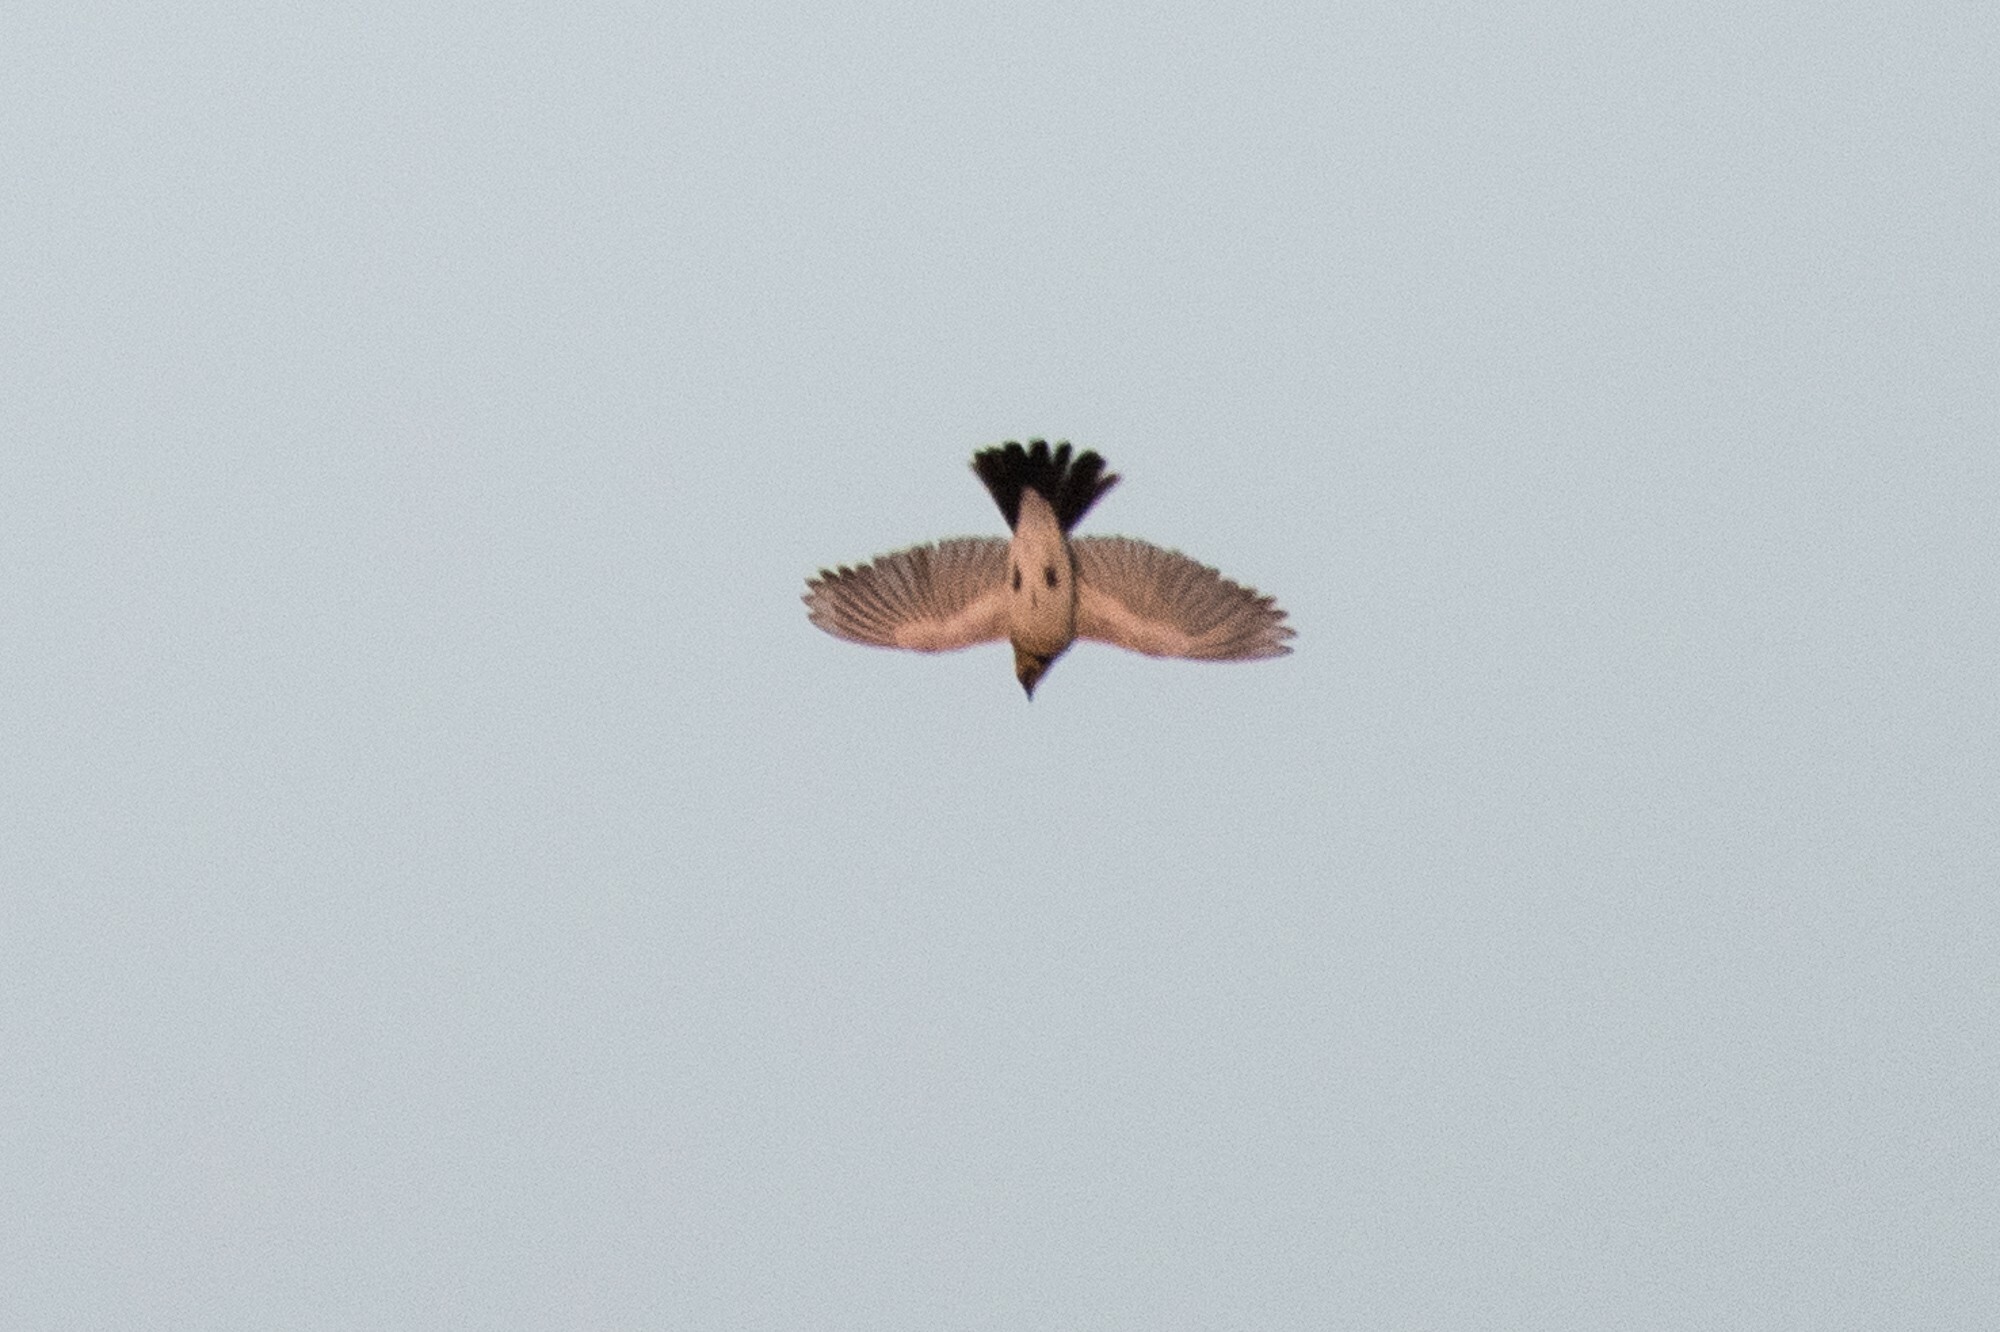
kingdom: Animalia
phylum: Chordata
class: Aves
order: Passeriformes
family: Alaudidae
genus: Eremophila
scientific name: Eremophila alpestris
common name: Horned lark
